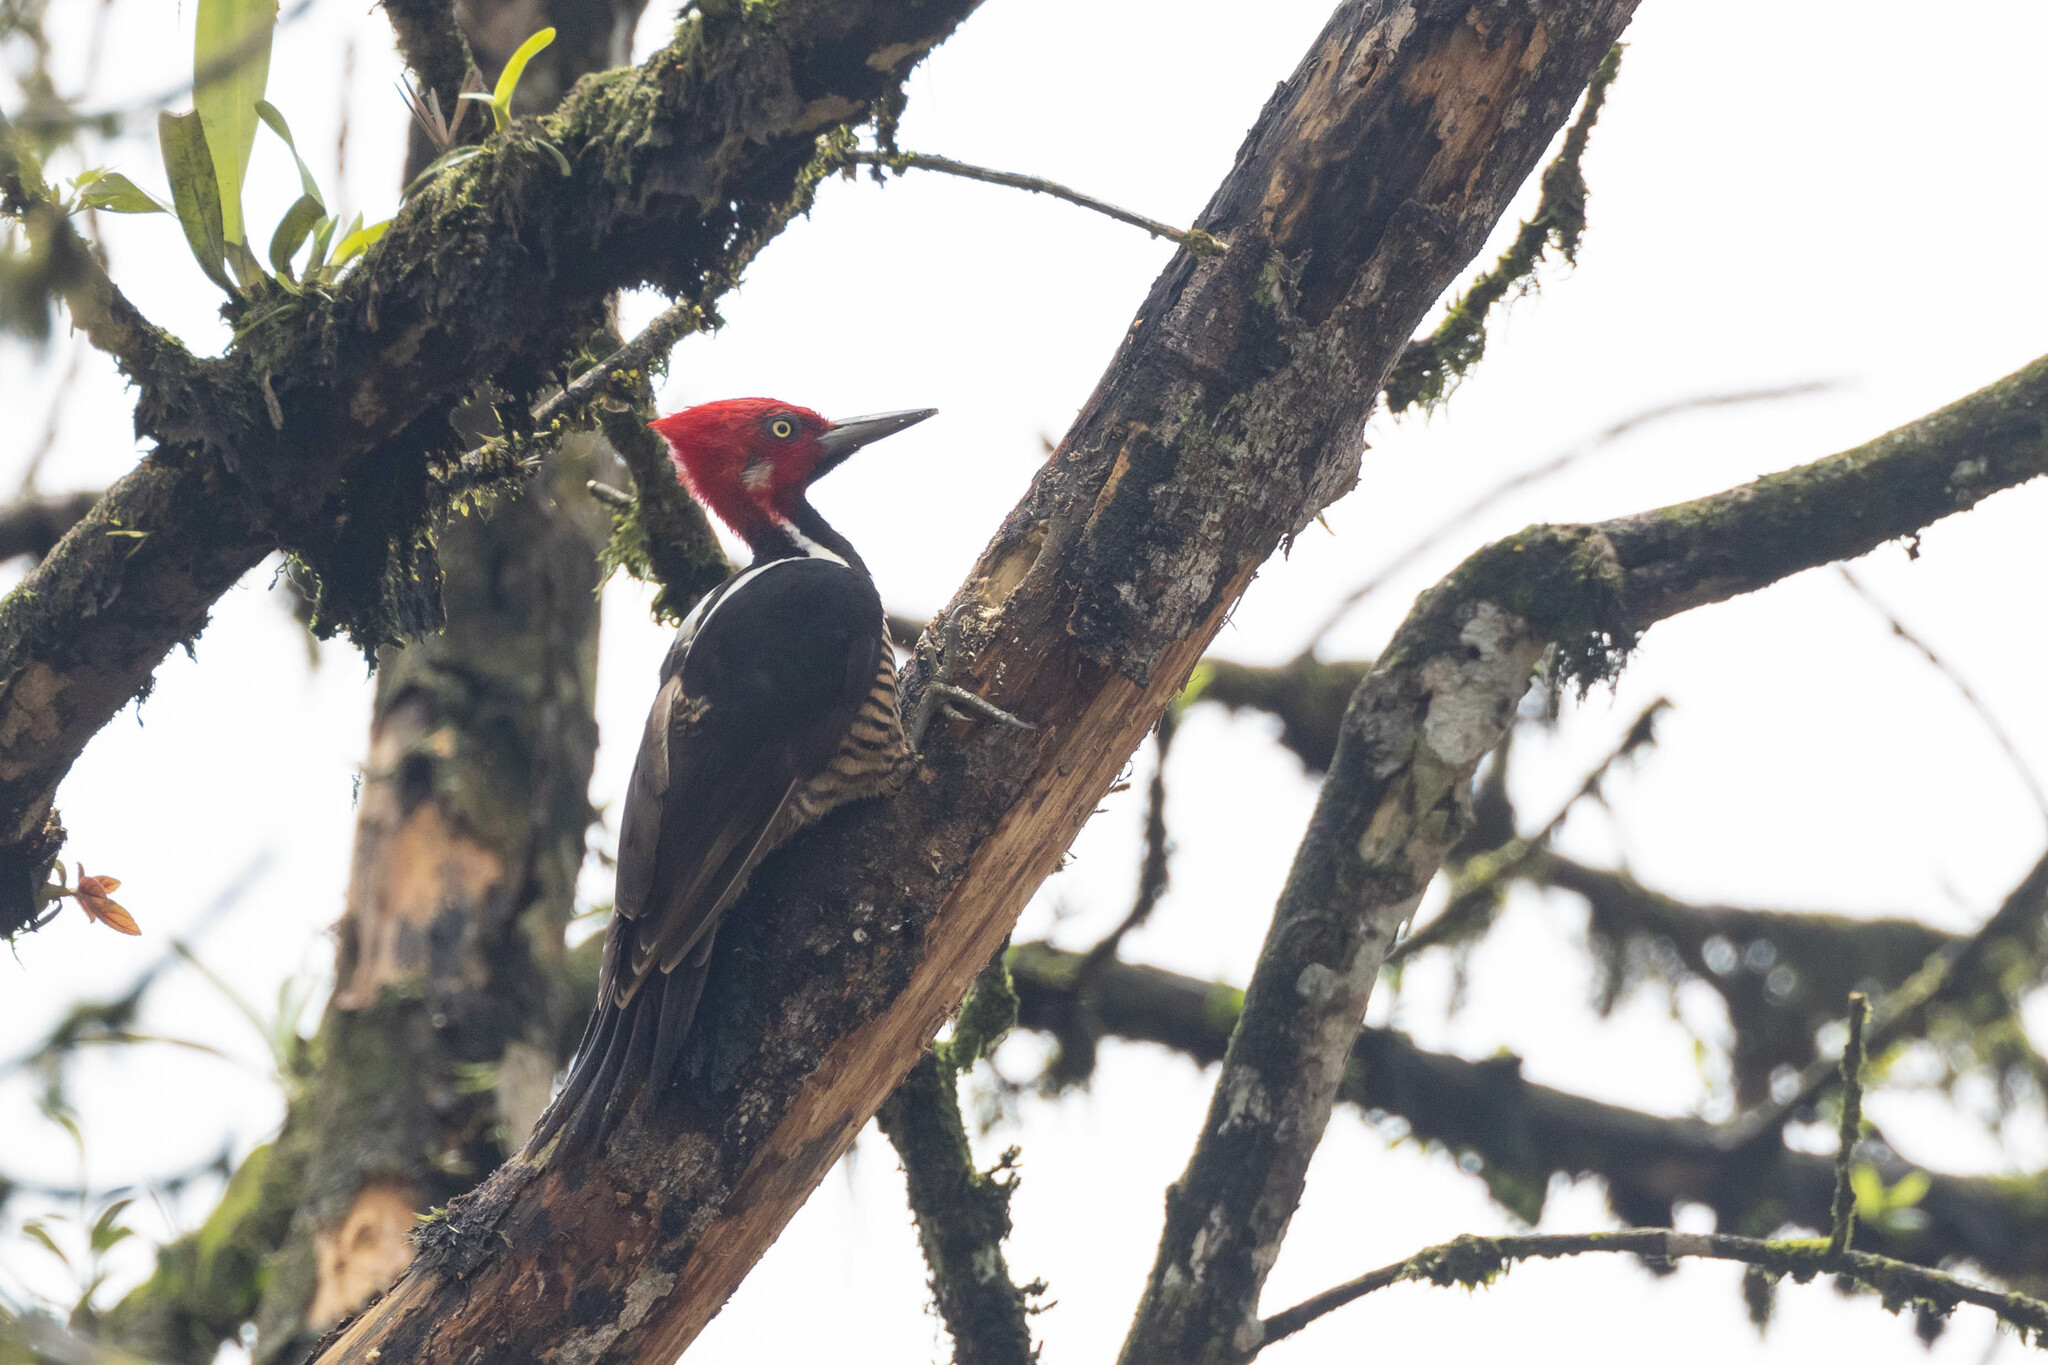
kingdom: Animalia
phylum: Chordata
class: Aves
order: Piciformes
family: Picidae
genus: Campephilus
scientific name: Campephilus gayaquilensis
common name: Guayaquil woodpecker
